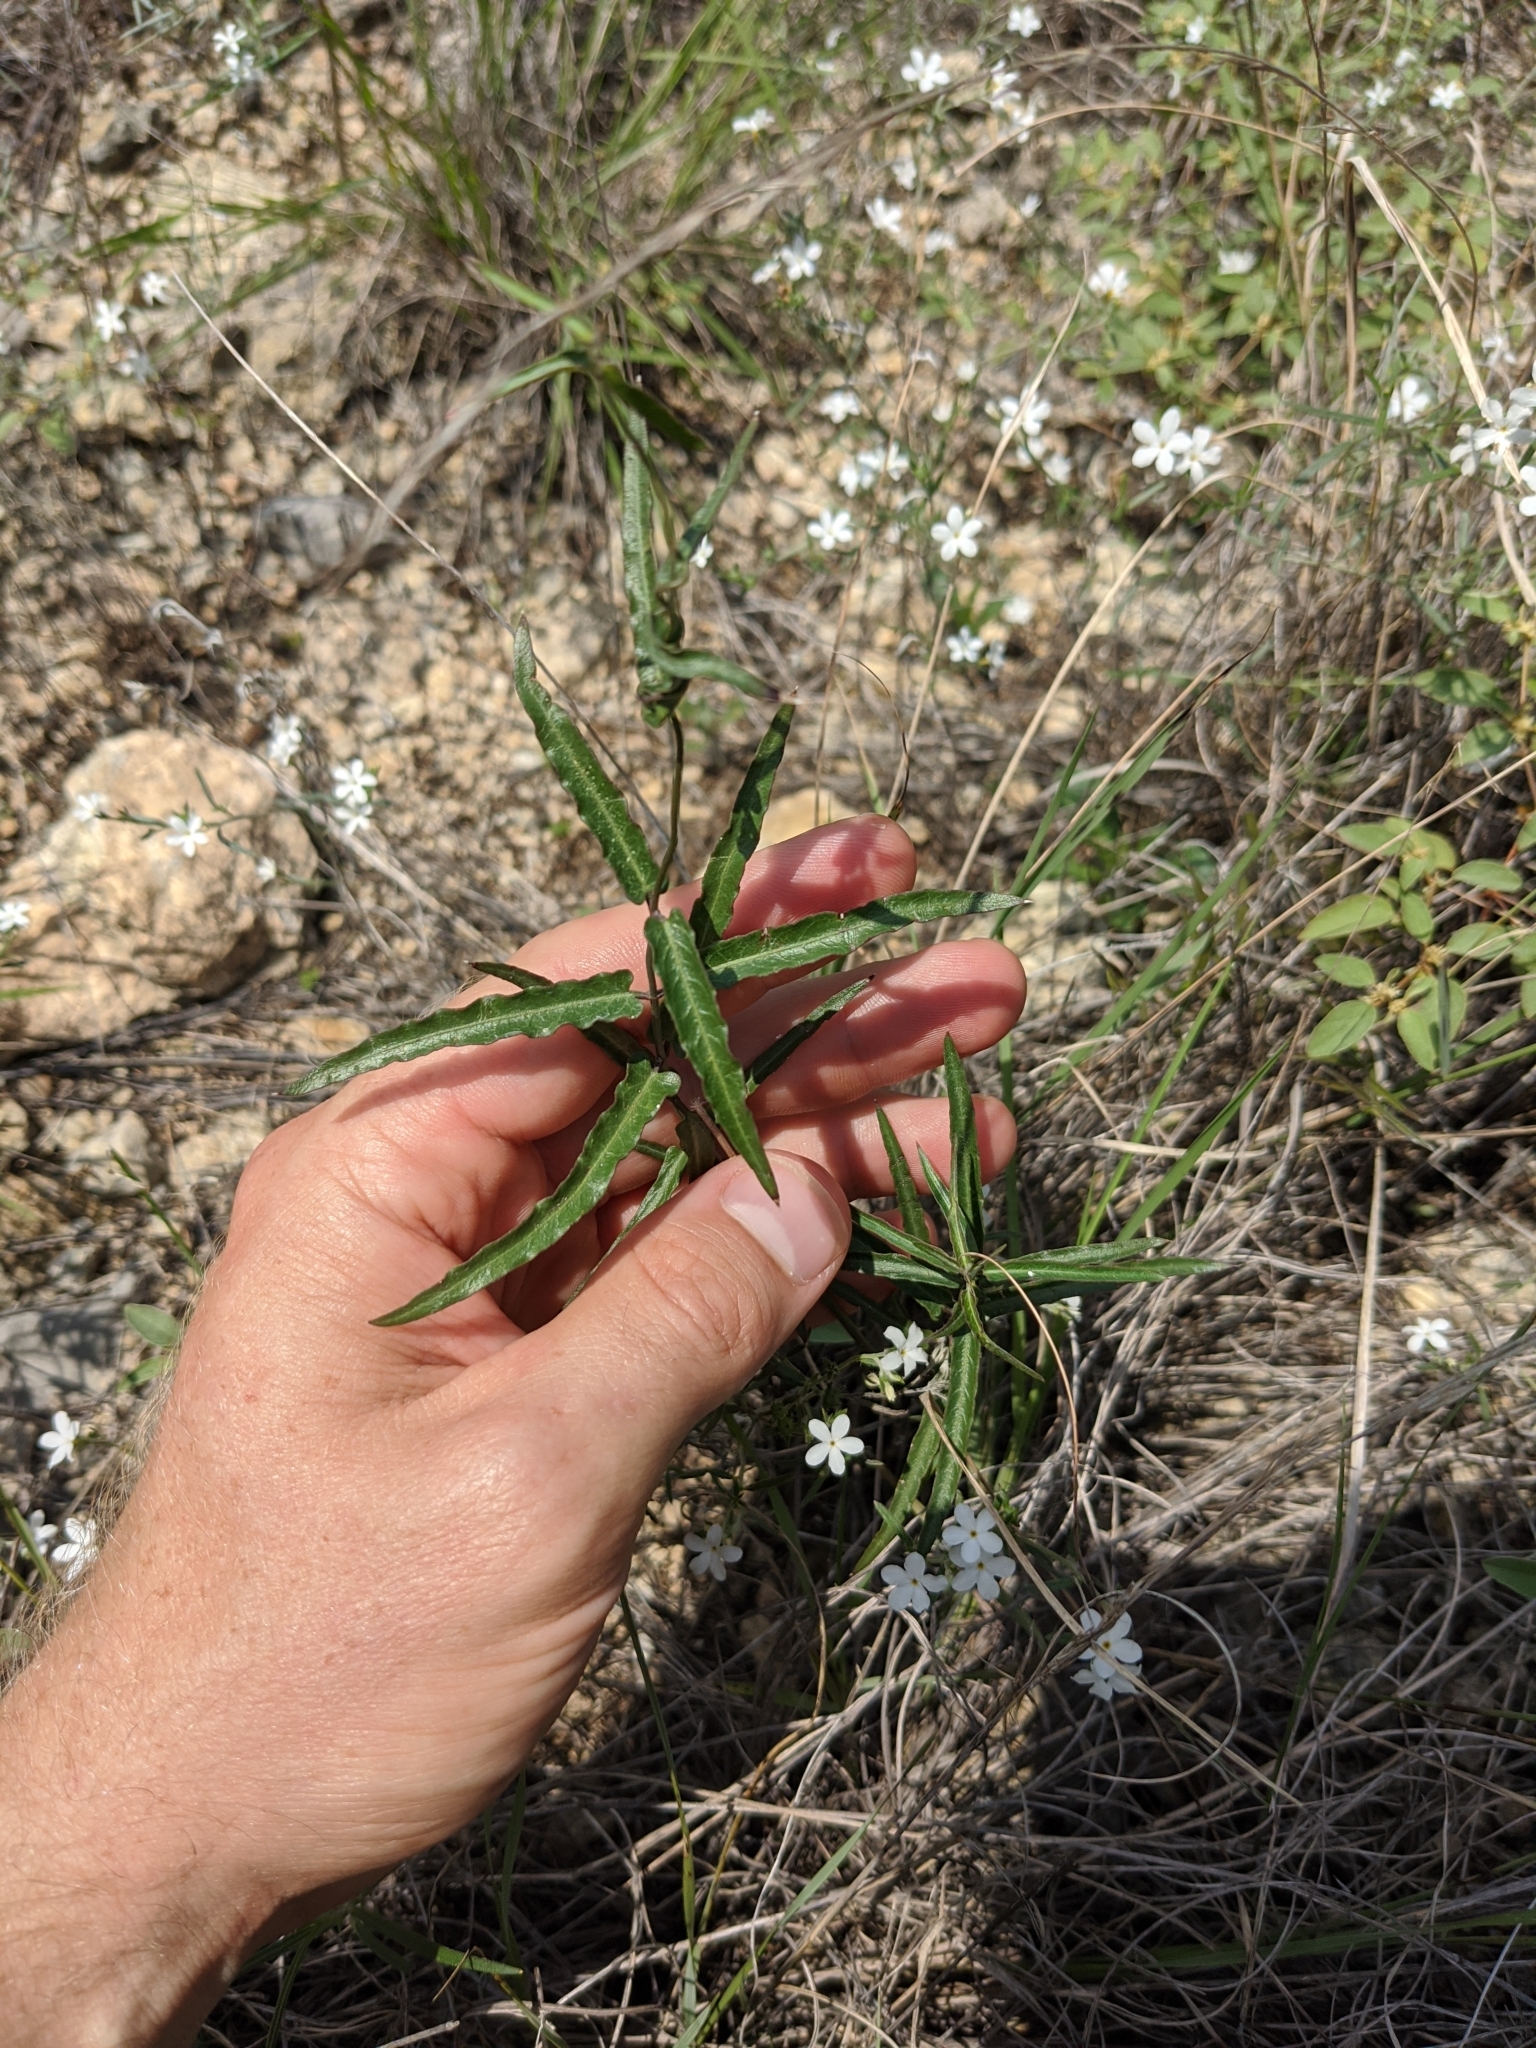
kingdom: Plantae
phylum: Tracheophyta
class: Magnoliopsida
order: Gentianales
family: Apocynaceae
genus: Funastrum
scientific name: Funastrum crispum
